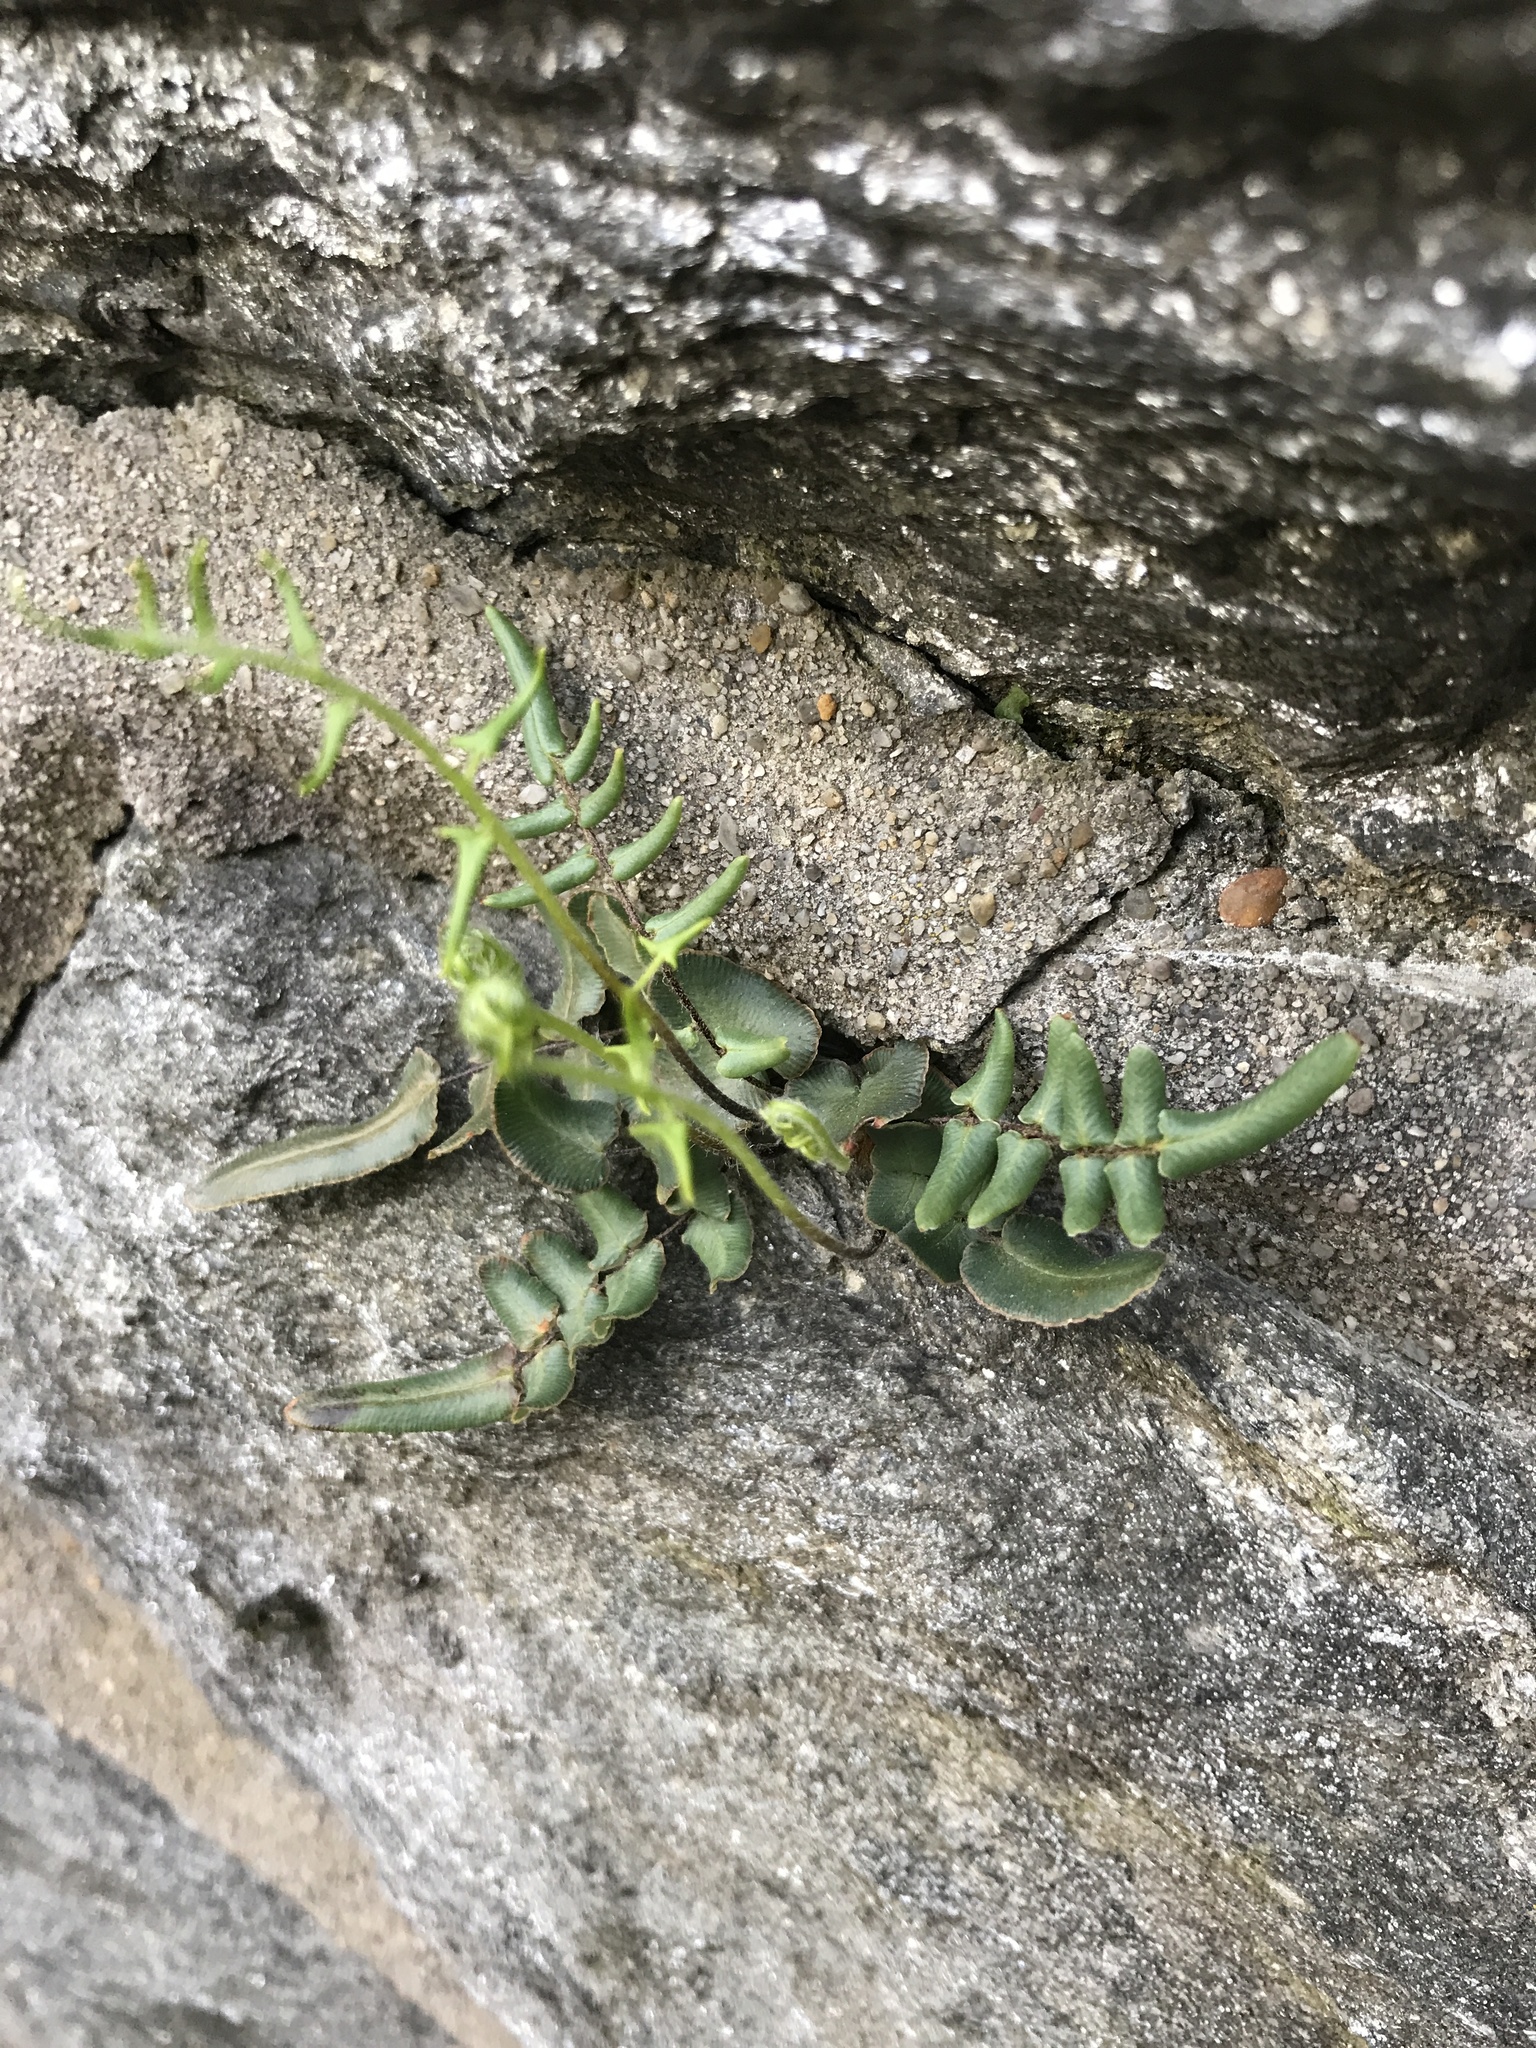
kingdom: Plantae
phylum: Tracheophyta
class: Polypodiopsida
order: Polypodiales
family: Pteridaceae
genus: Pellaea
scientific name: Pellaea atropurpurea
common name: Hairy cliffbrake
